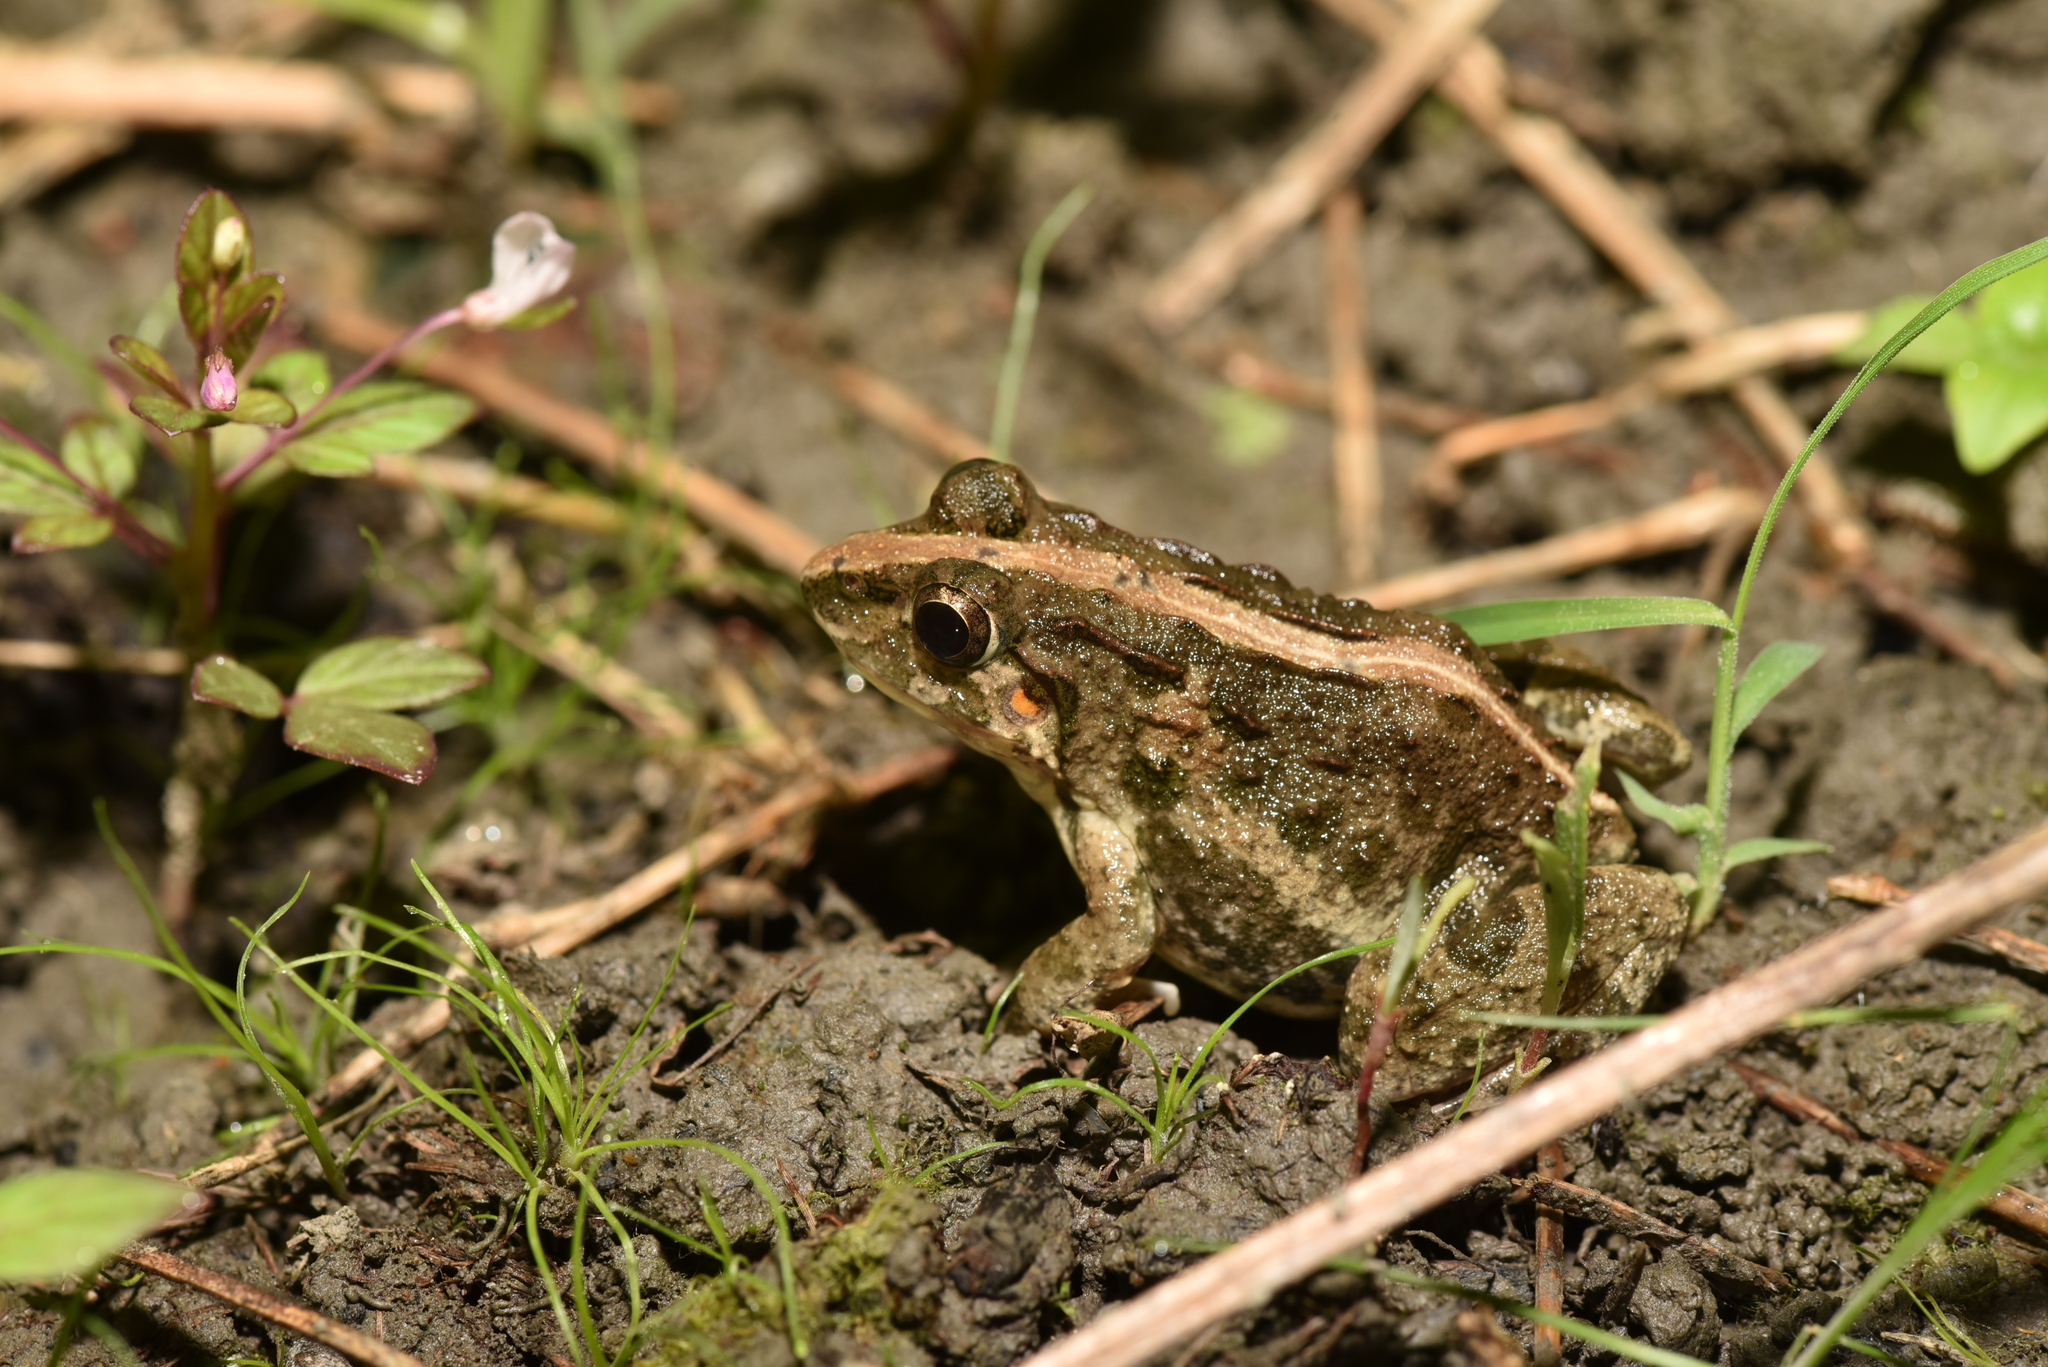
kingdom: Animalia
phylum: Chordata
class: Amphibia
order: Anura
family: Dicroglossidae
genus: Fejervarya
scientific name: Fejervarya limnocharis
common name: Asian grass frog/common pond frog/field frog/grass frog/indian rice frog
